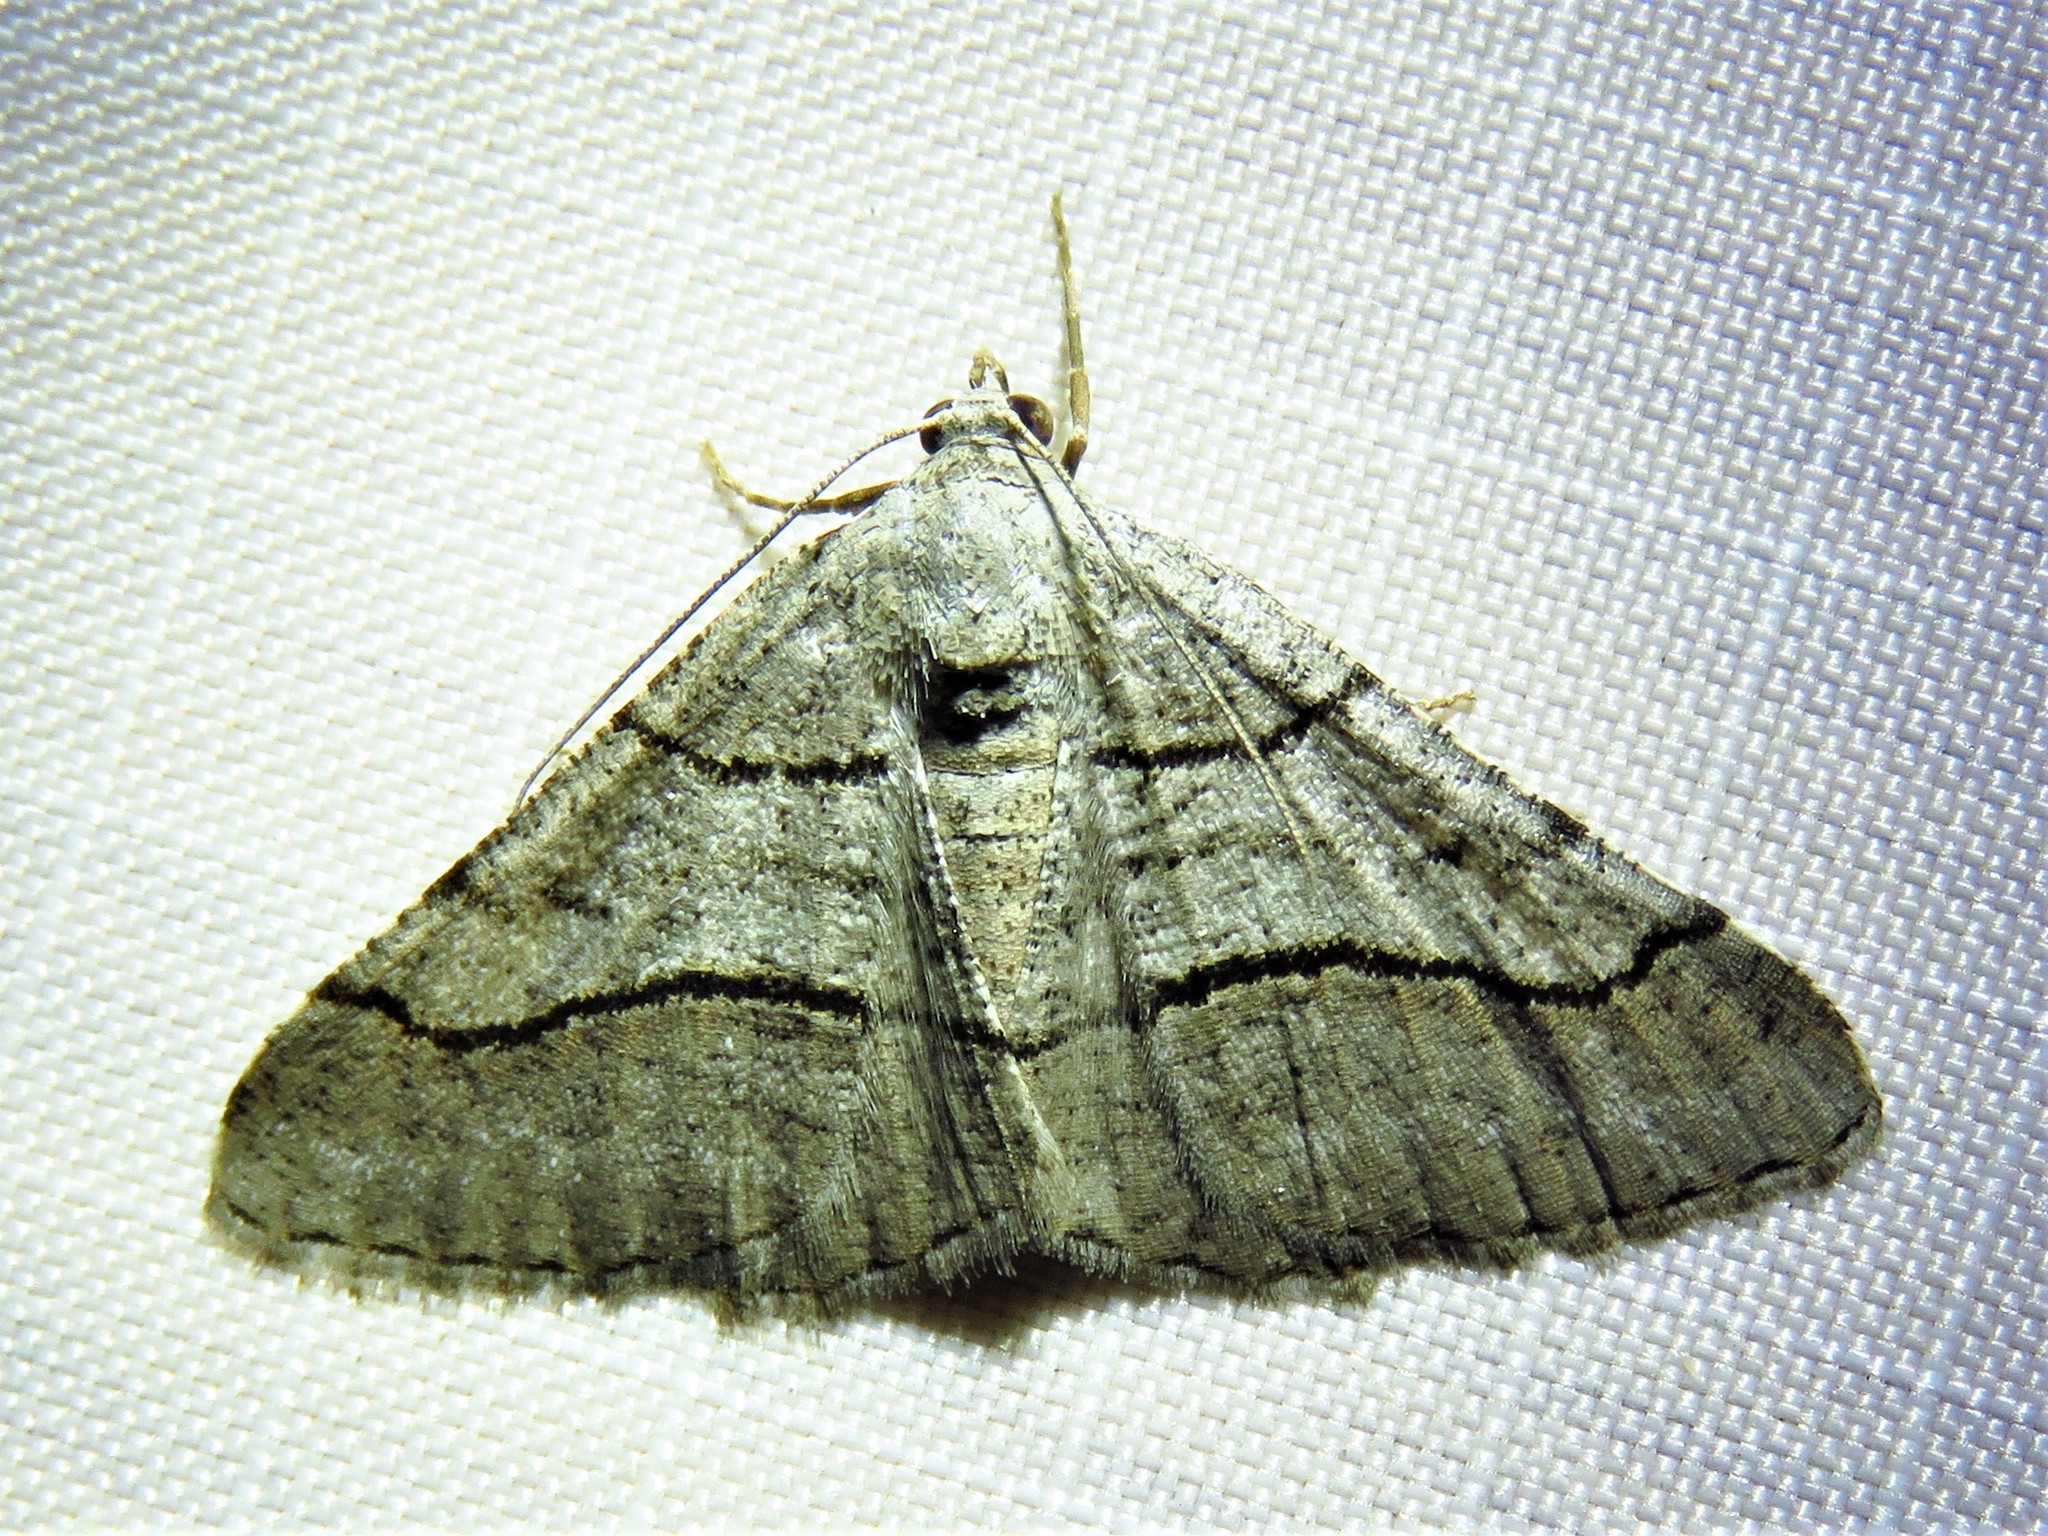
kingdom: Animalia
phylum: Arthropoda
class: Insecta
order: Lepidoptera
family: Geometridae
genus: Digrammia
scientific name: Digrammia continuata
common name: Curve-lined angle
